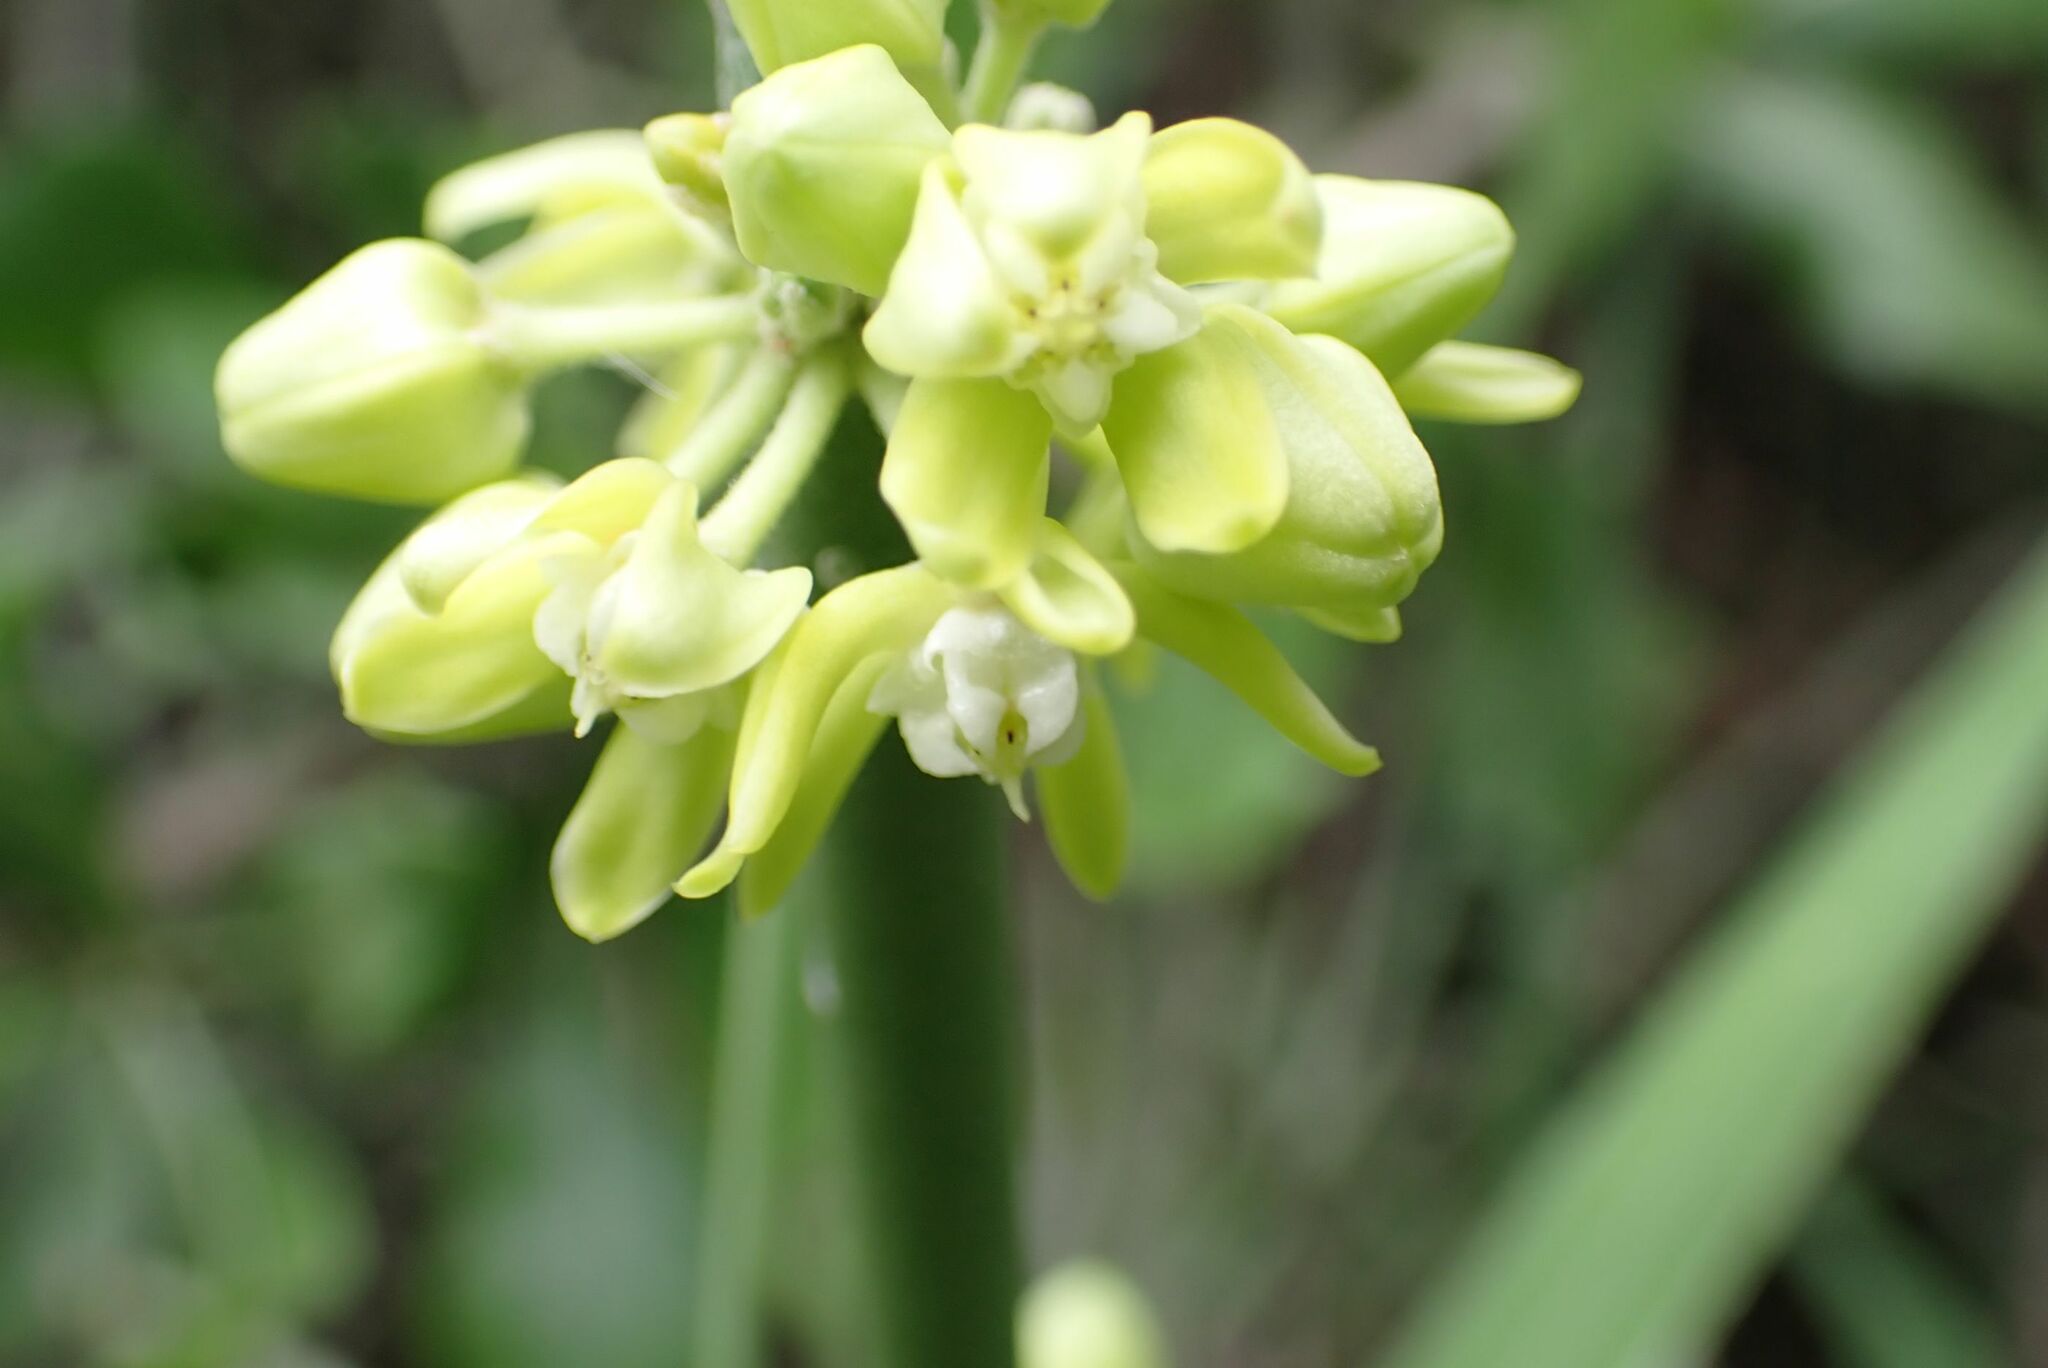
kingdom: Plantae
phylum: Tracheophyta
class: Magnoliopsida
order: Gentianales
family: Apocynaceae
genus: Cynanchum
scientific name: Cynanchum viminale
